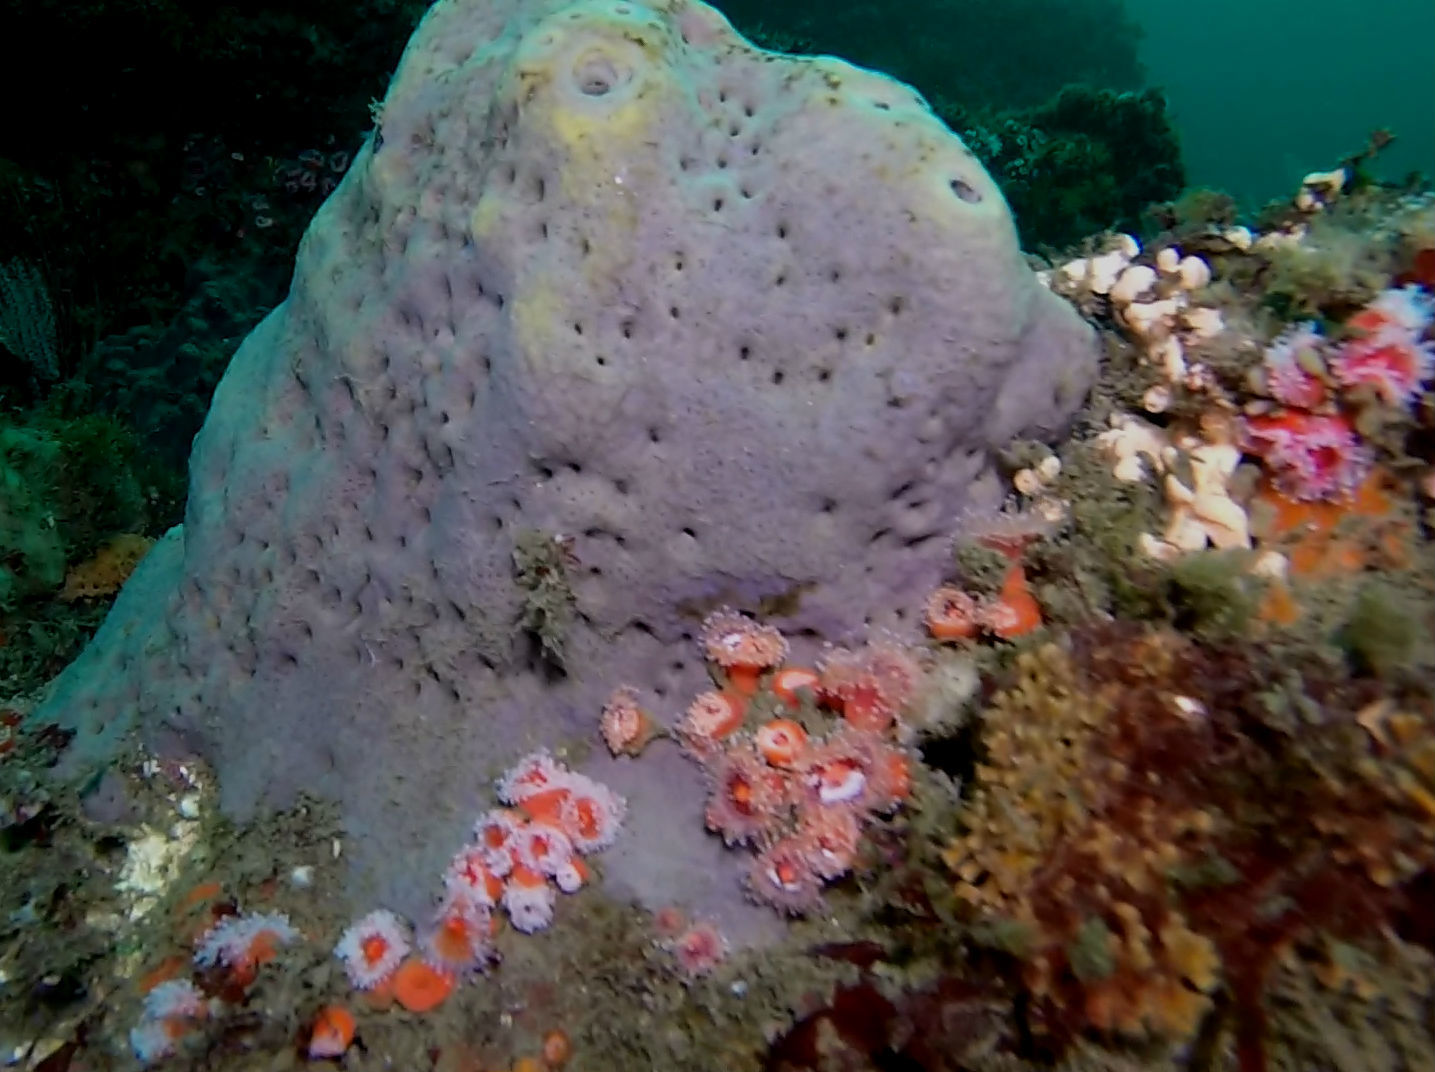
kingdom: Animalia
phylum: Porifera
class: Demospongiae
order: Clionaida
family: Clionaidae
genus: Spheciospongia
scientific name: Spheciospongia confoederata
